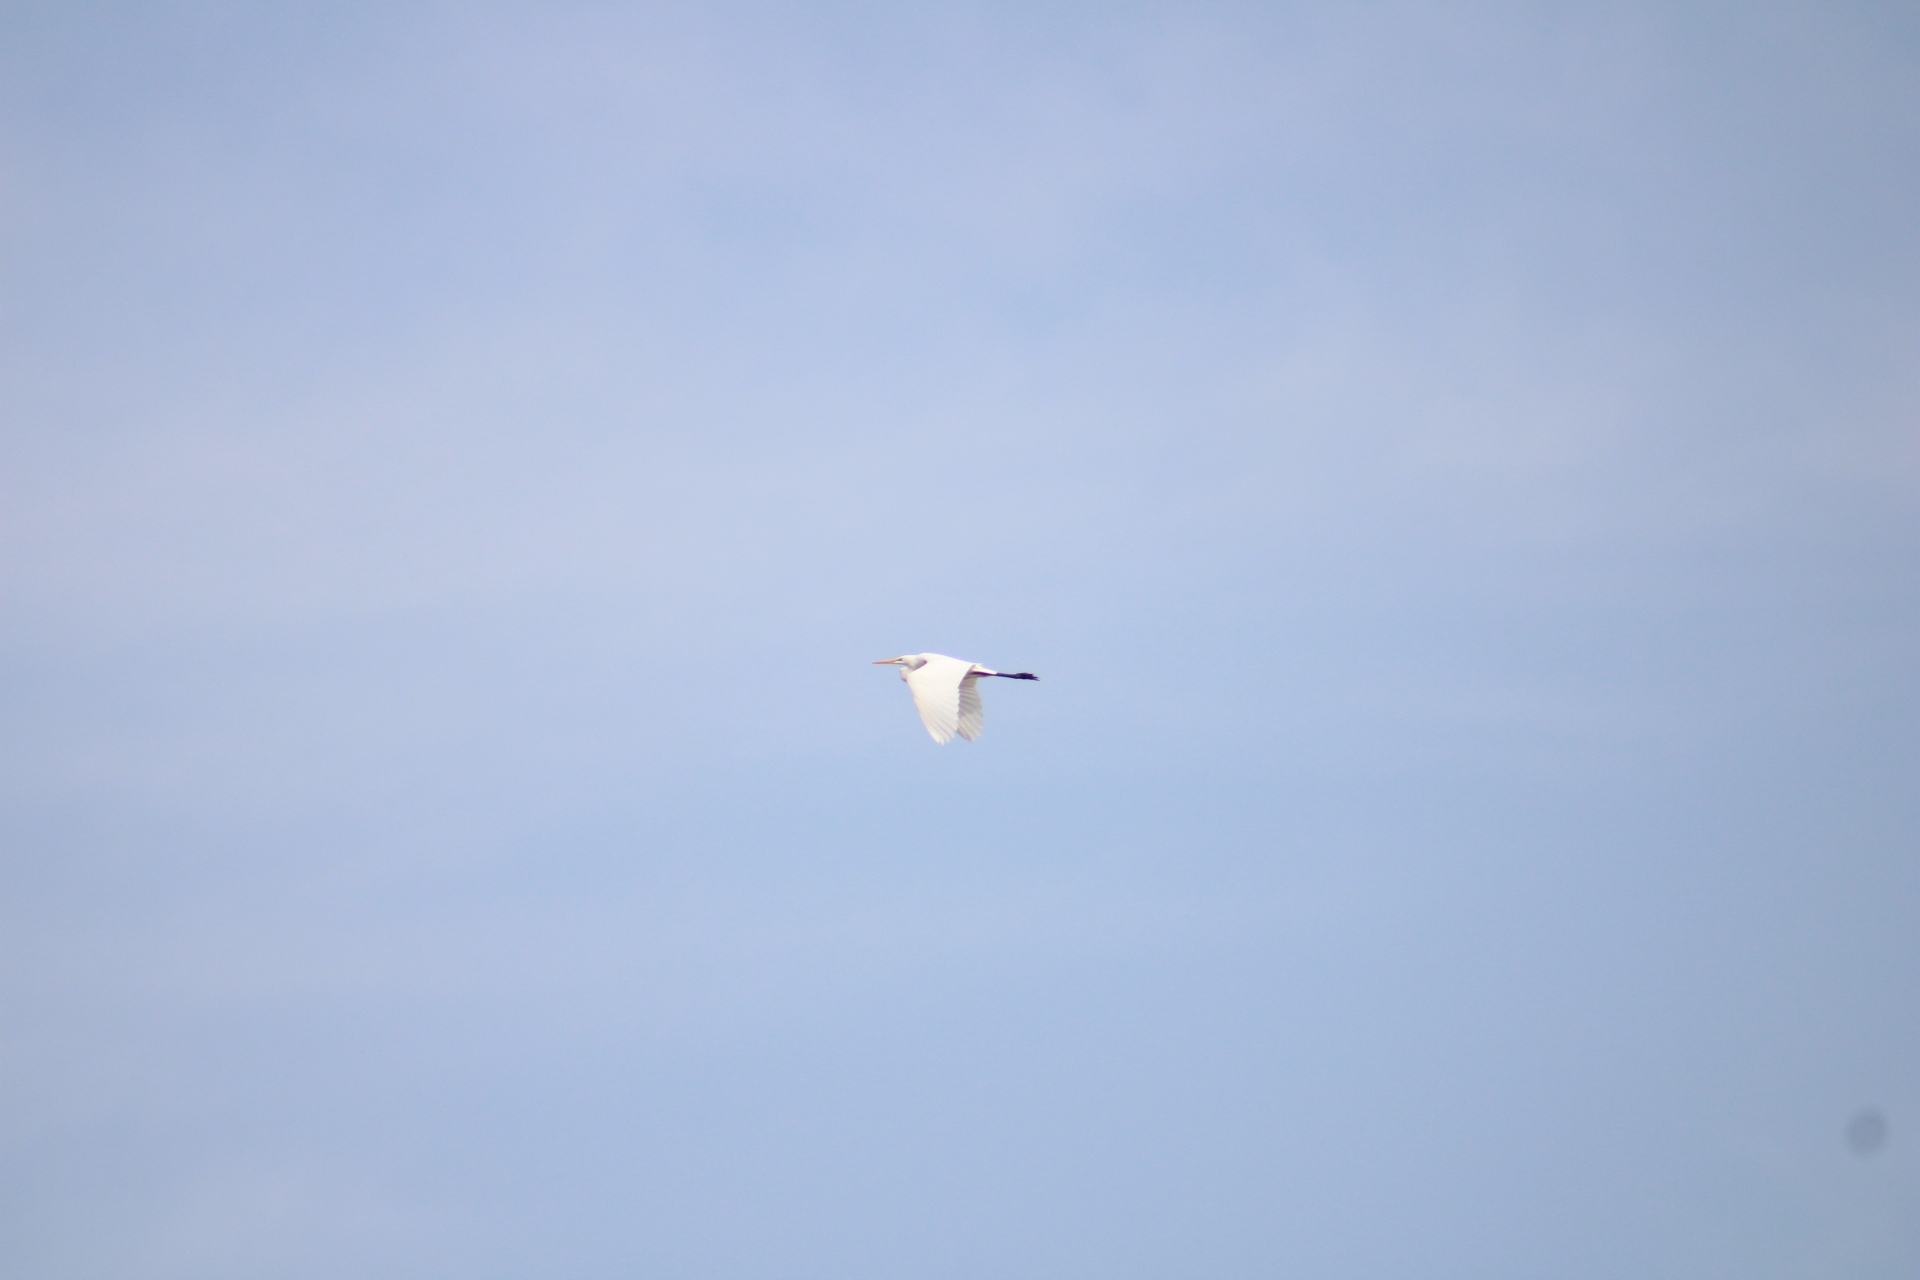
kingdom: Animalia
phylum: Chordata
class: Aves
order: Pelecaniformes
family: Ardeidae
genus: Ardea
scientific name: Ardea alba
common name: Great egret
